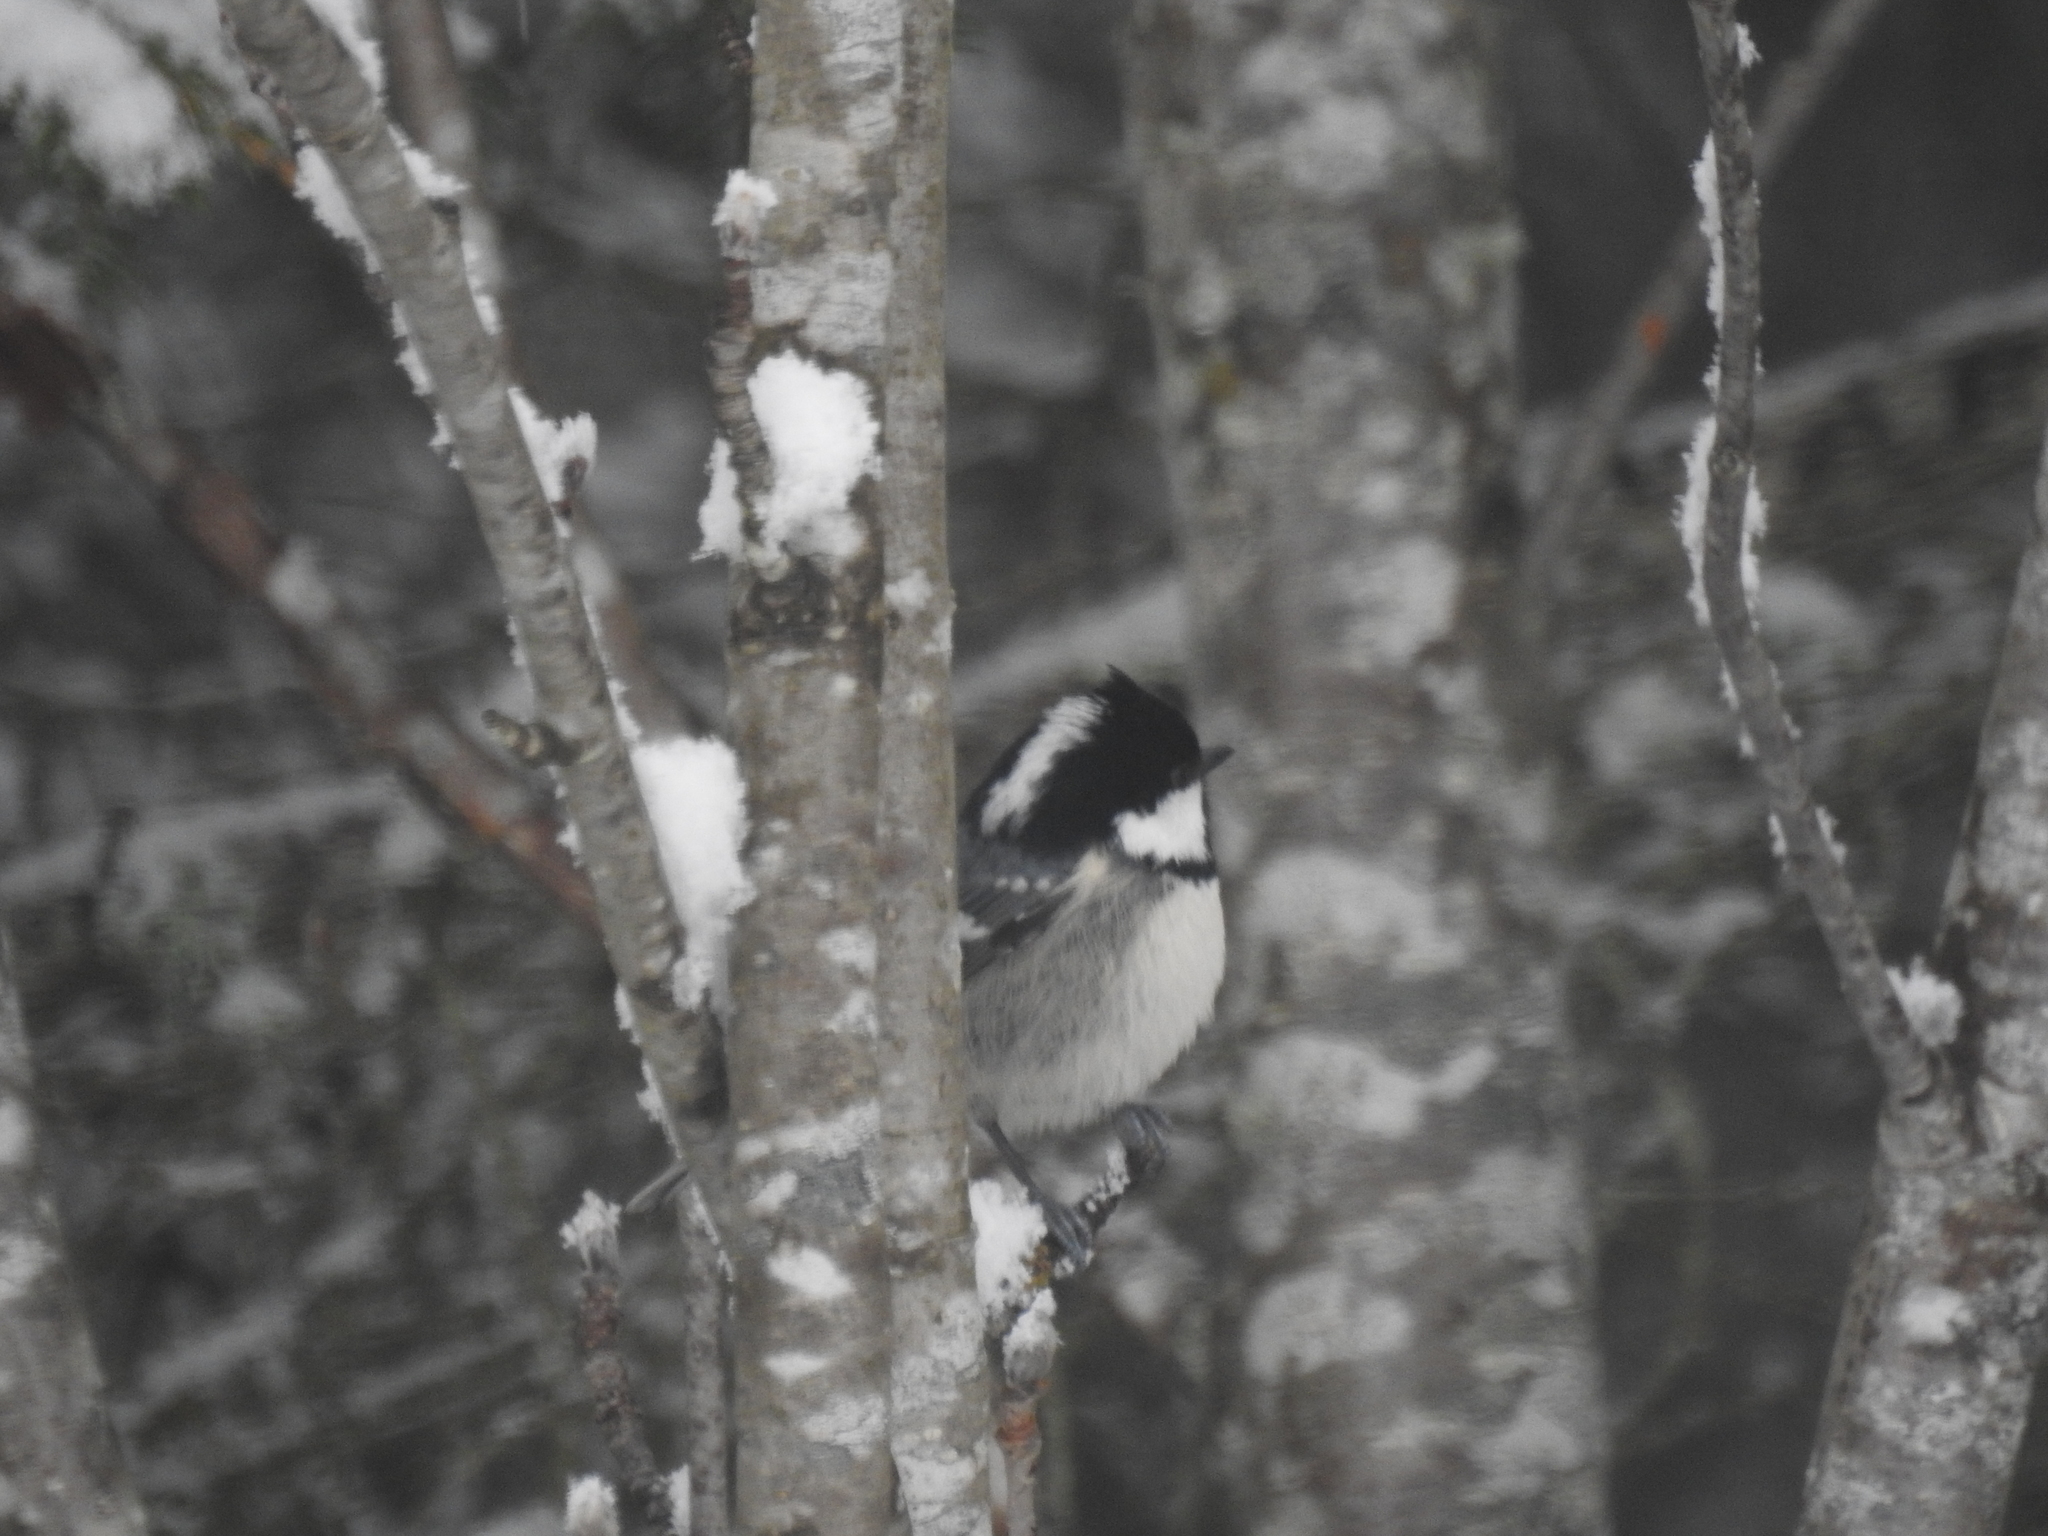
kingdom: Animalia
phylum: Chordata
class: Aves
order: Passeriformes
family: Paridae
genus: Periparus
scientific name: Periparus ater
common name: Coal tit
